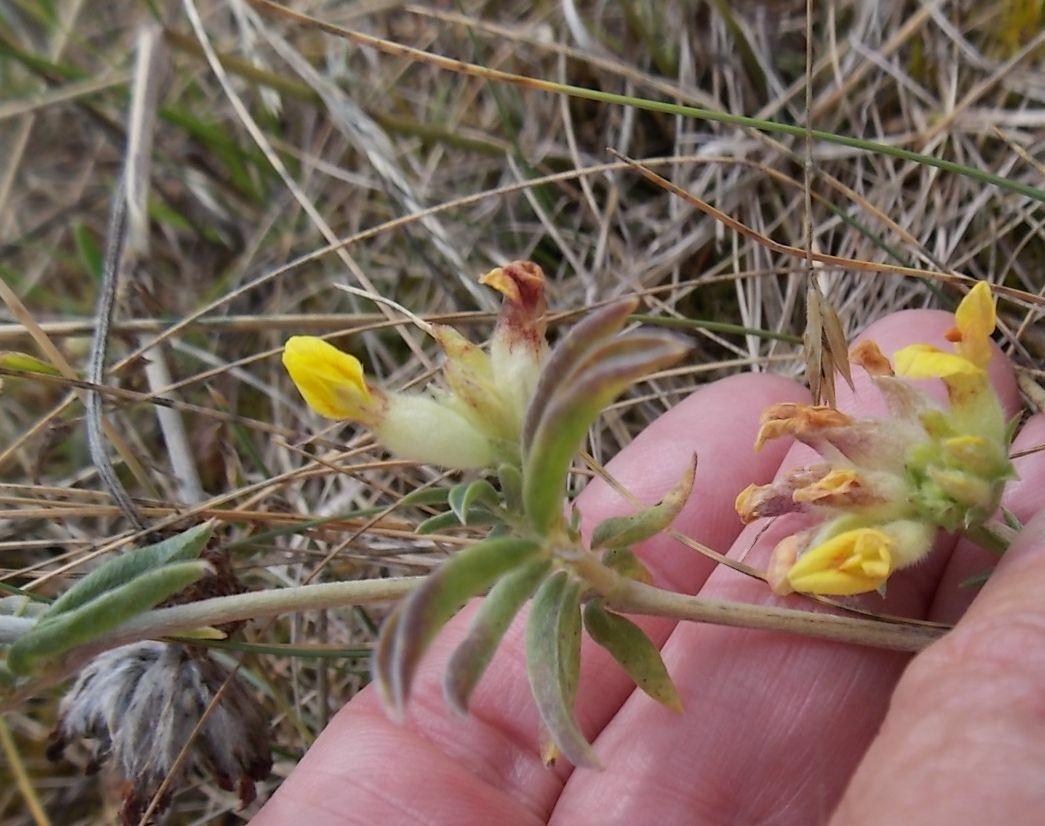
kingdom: Plantae
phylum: Tracheophyta
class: Magnoliopsida
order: Fabales
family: Fabaceae
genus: Anthyllis
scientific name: Anthyllis vulneraria
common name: Kidney vetch
